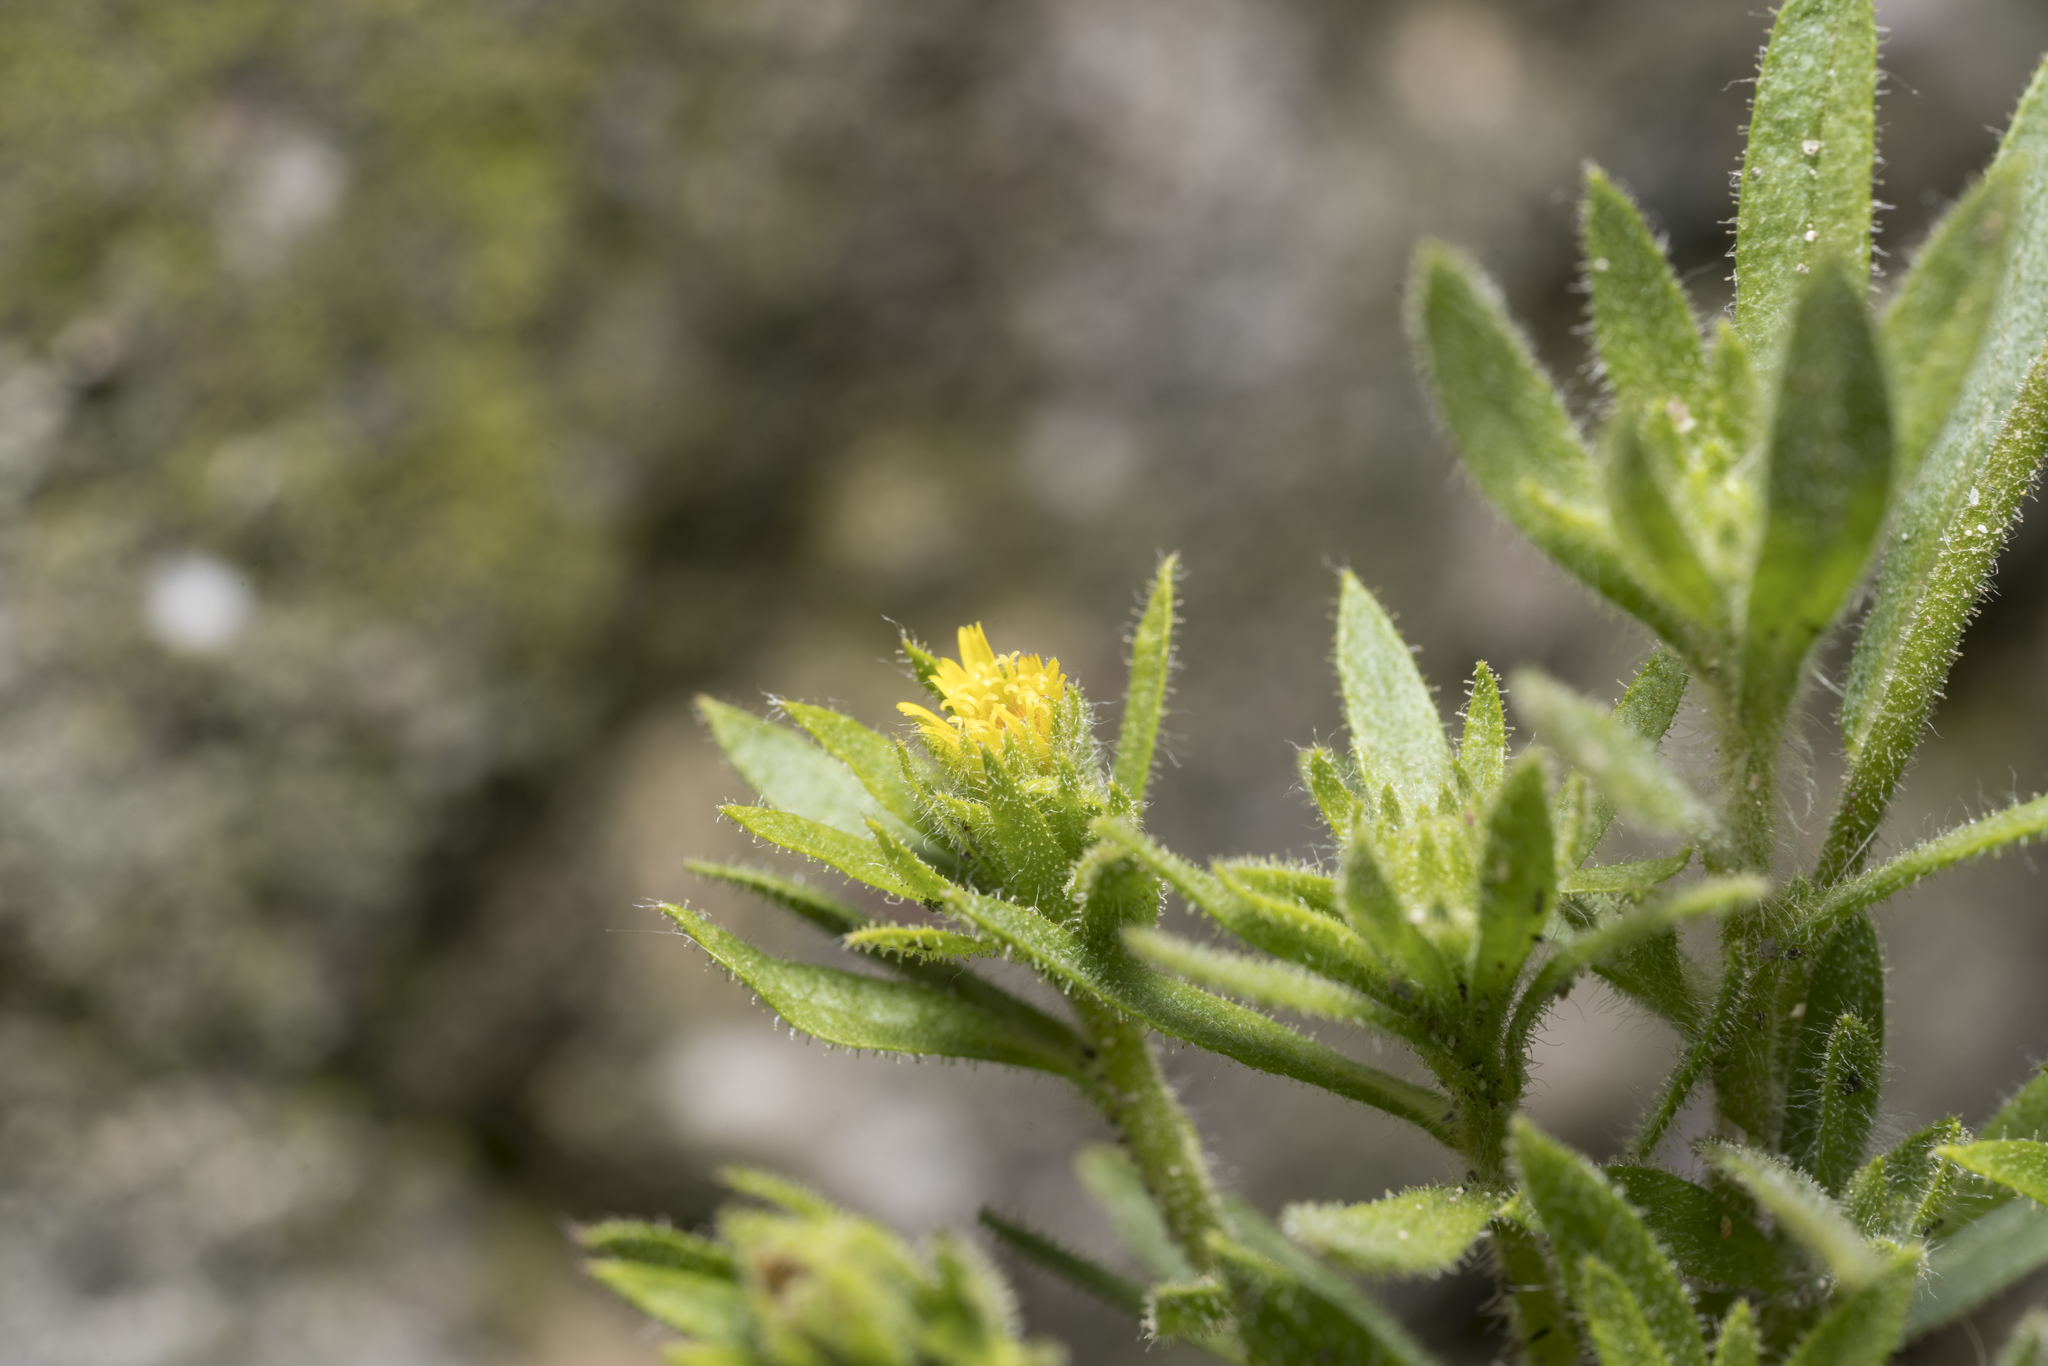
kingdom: Plantae
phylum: Tracheophyta
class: Magnoliopsida
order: Asterales
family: Asteraceae
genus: Dittrichia
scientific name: Dittrichia graveolens
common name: Stinking fleabane
